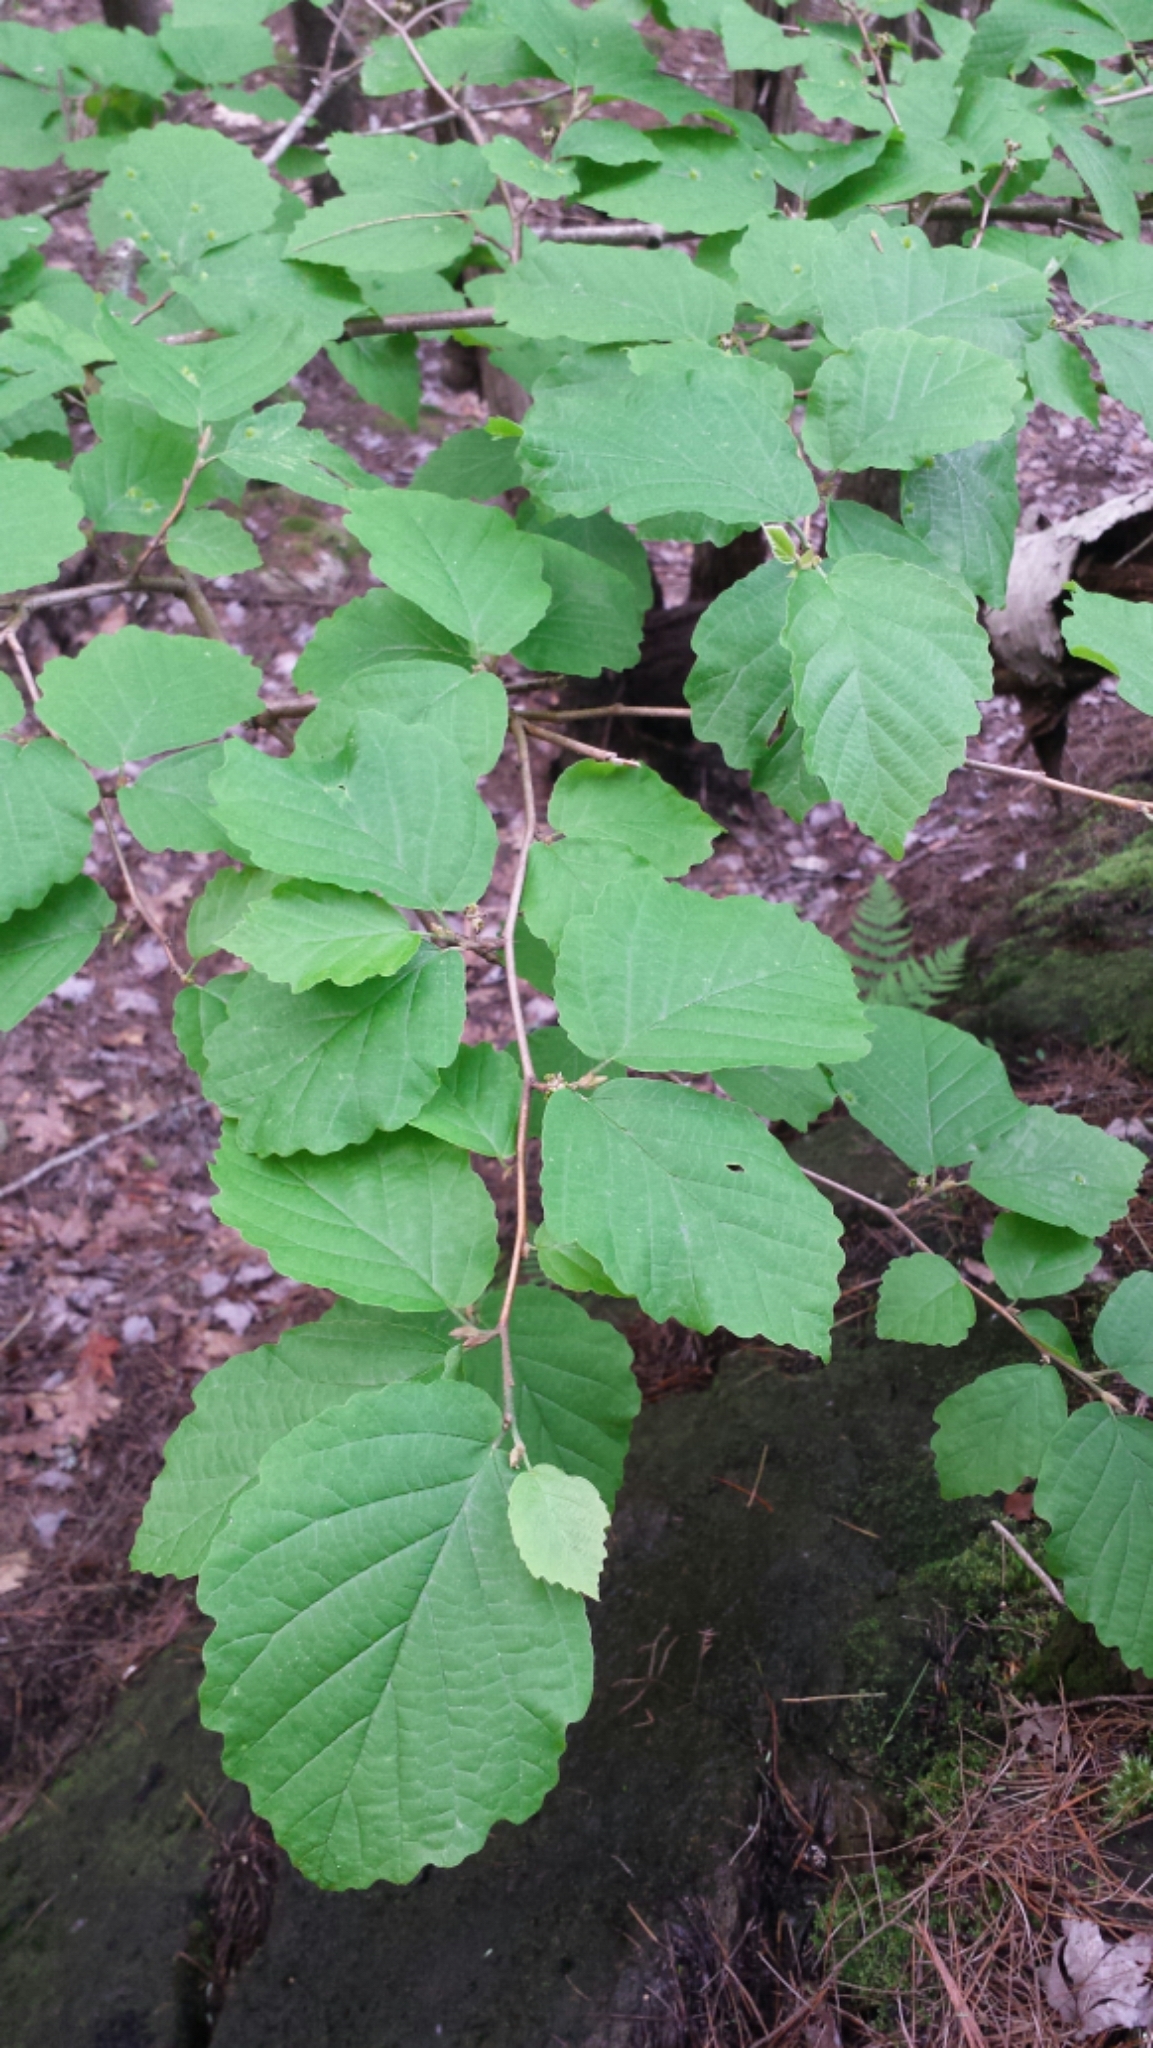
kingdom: Plantae
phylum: Tracheophyta
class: Magnoliopsida
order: Saxifragales
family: Hamamelidaceae
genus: Hamamelis
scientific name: Hamamelis virginiana
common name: Witch-hazel
